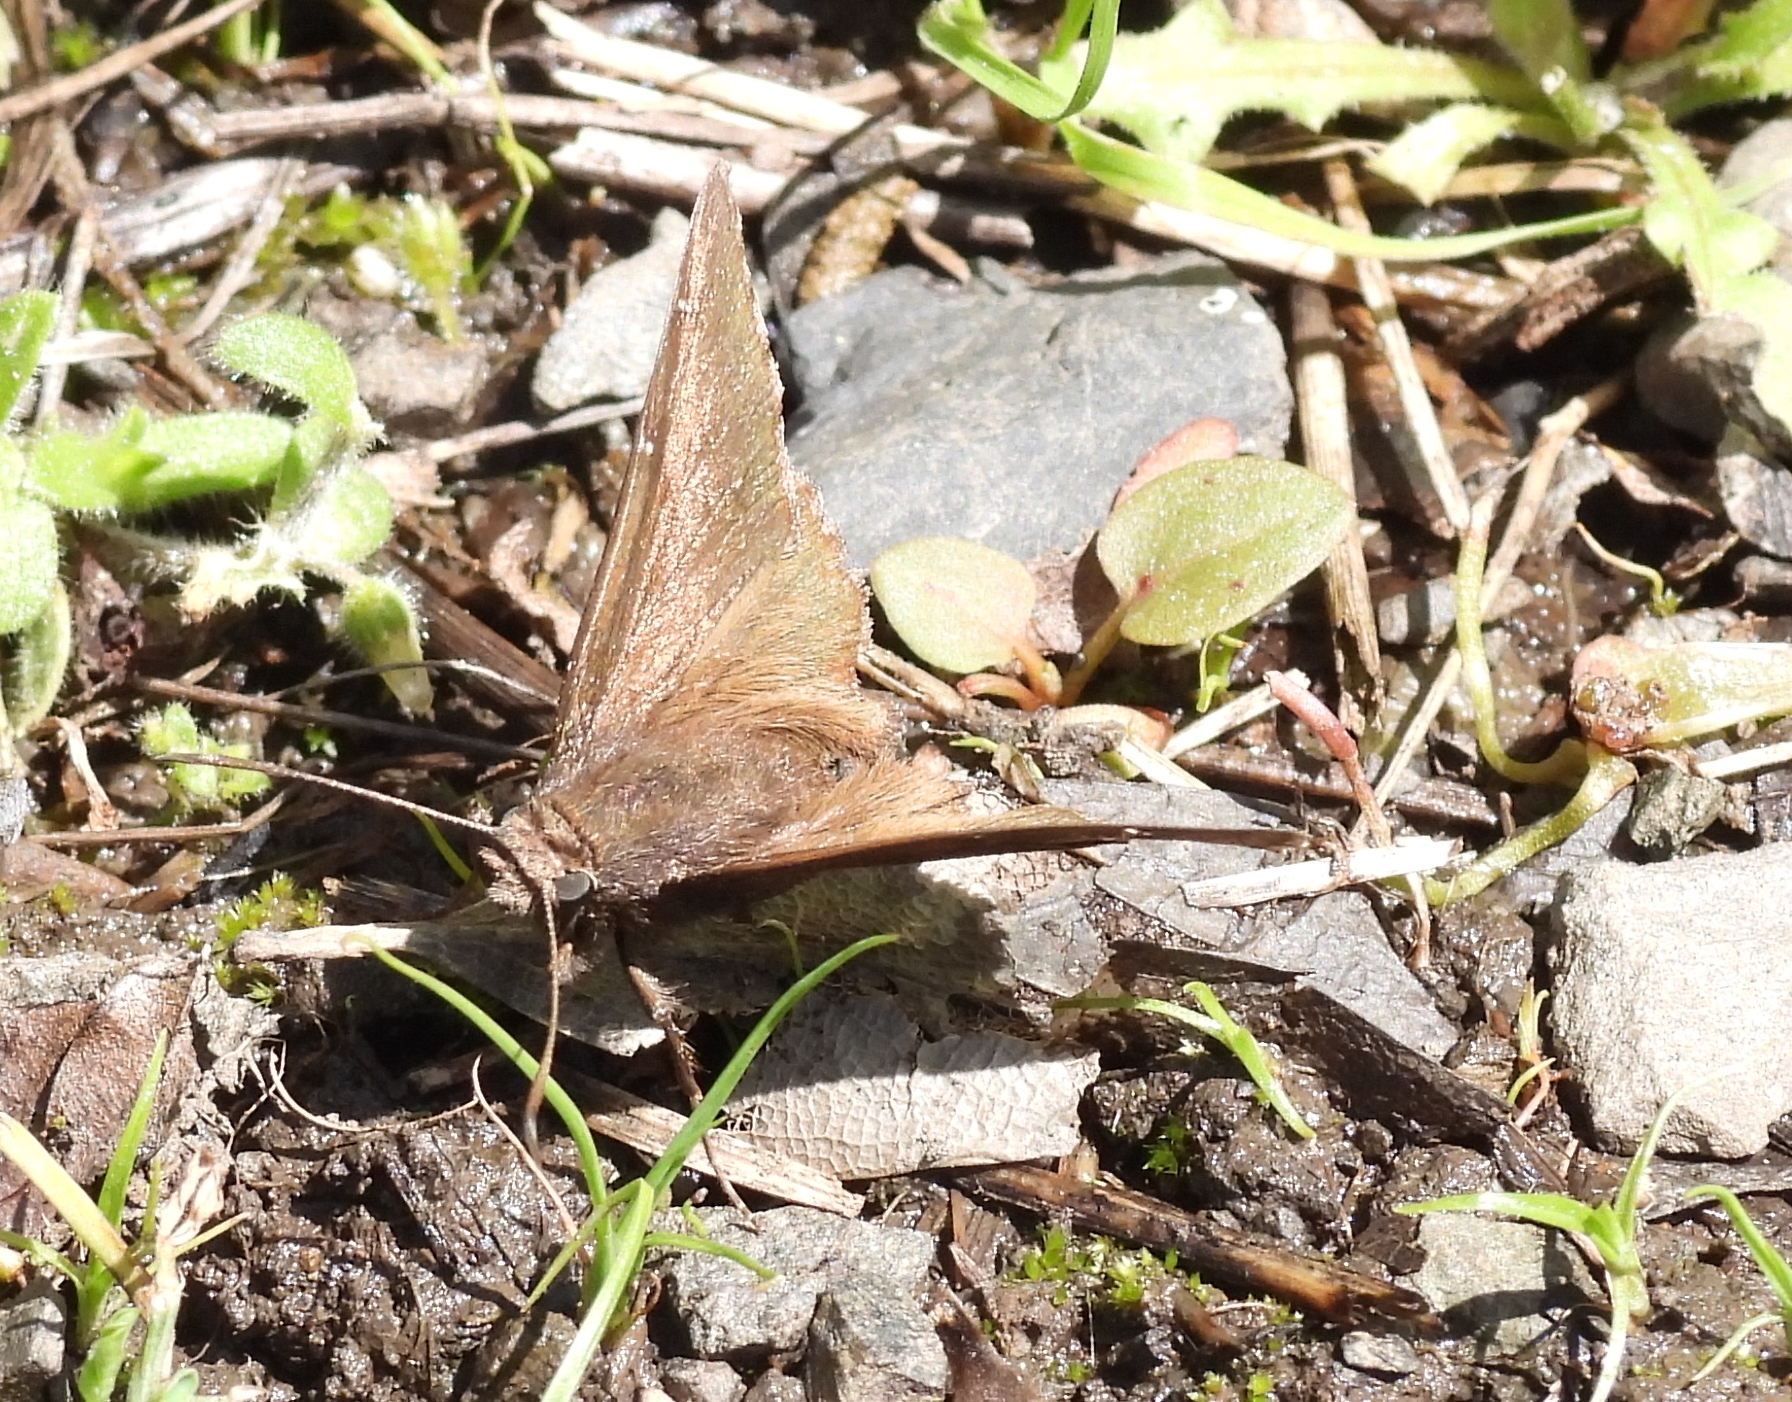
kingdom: Animalia
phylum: Arthropoda
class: Insecta
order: Lepidoptera
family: Hesperiidae
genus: Thorybes
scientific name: Thorybes pylades
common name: Northern cloudywing
